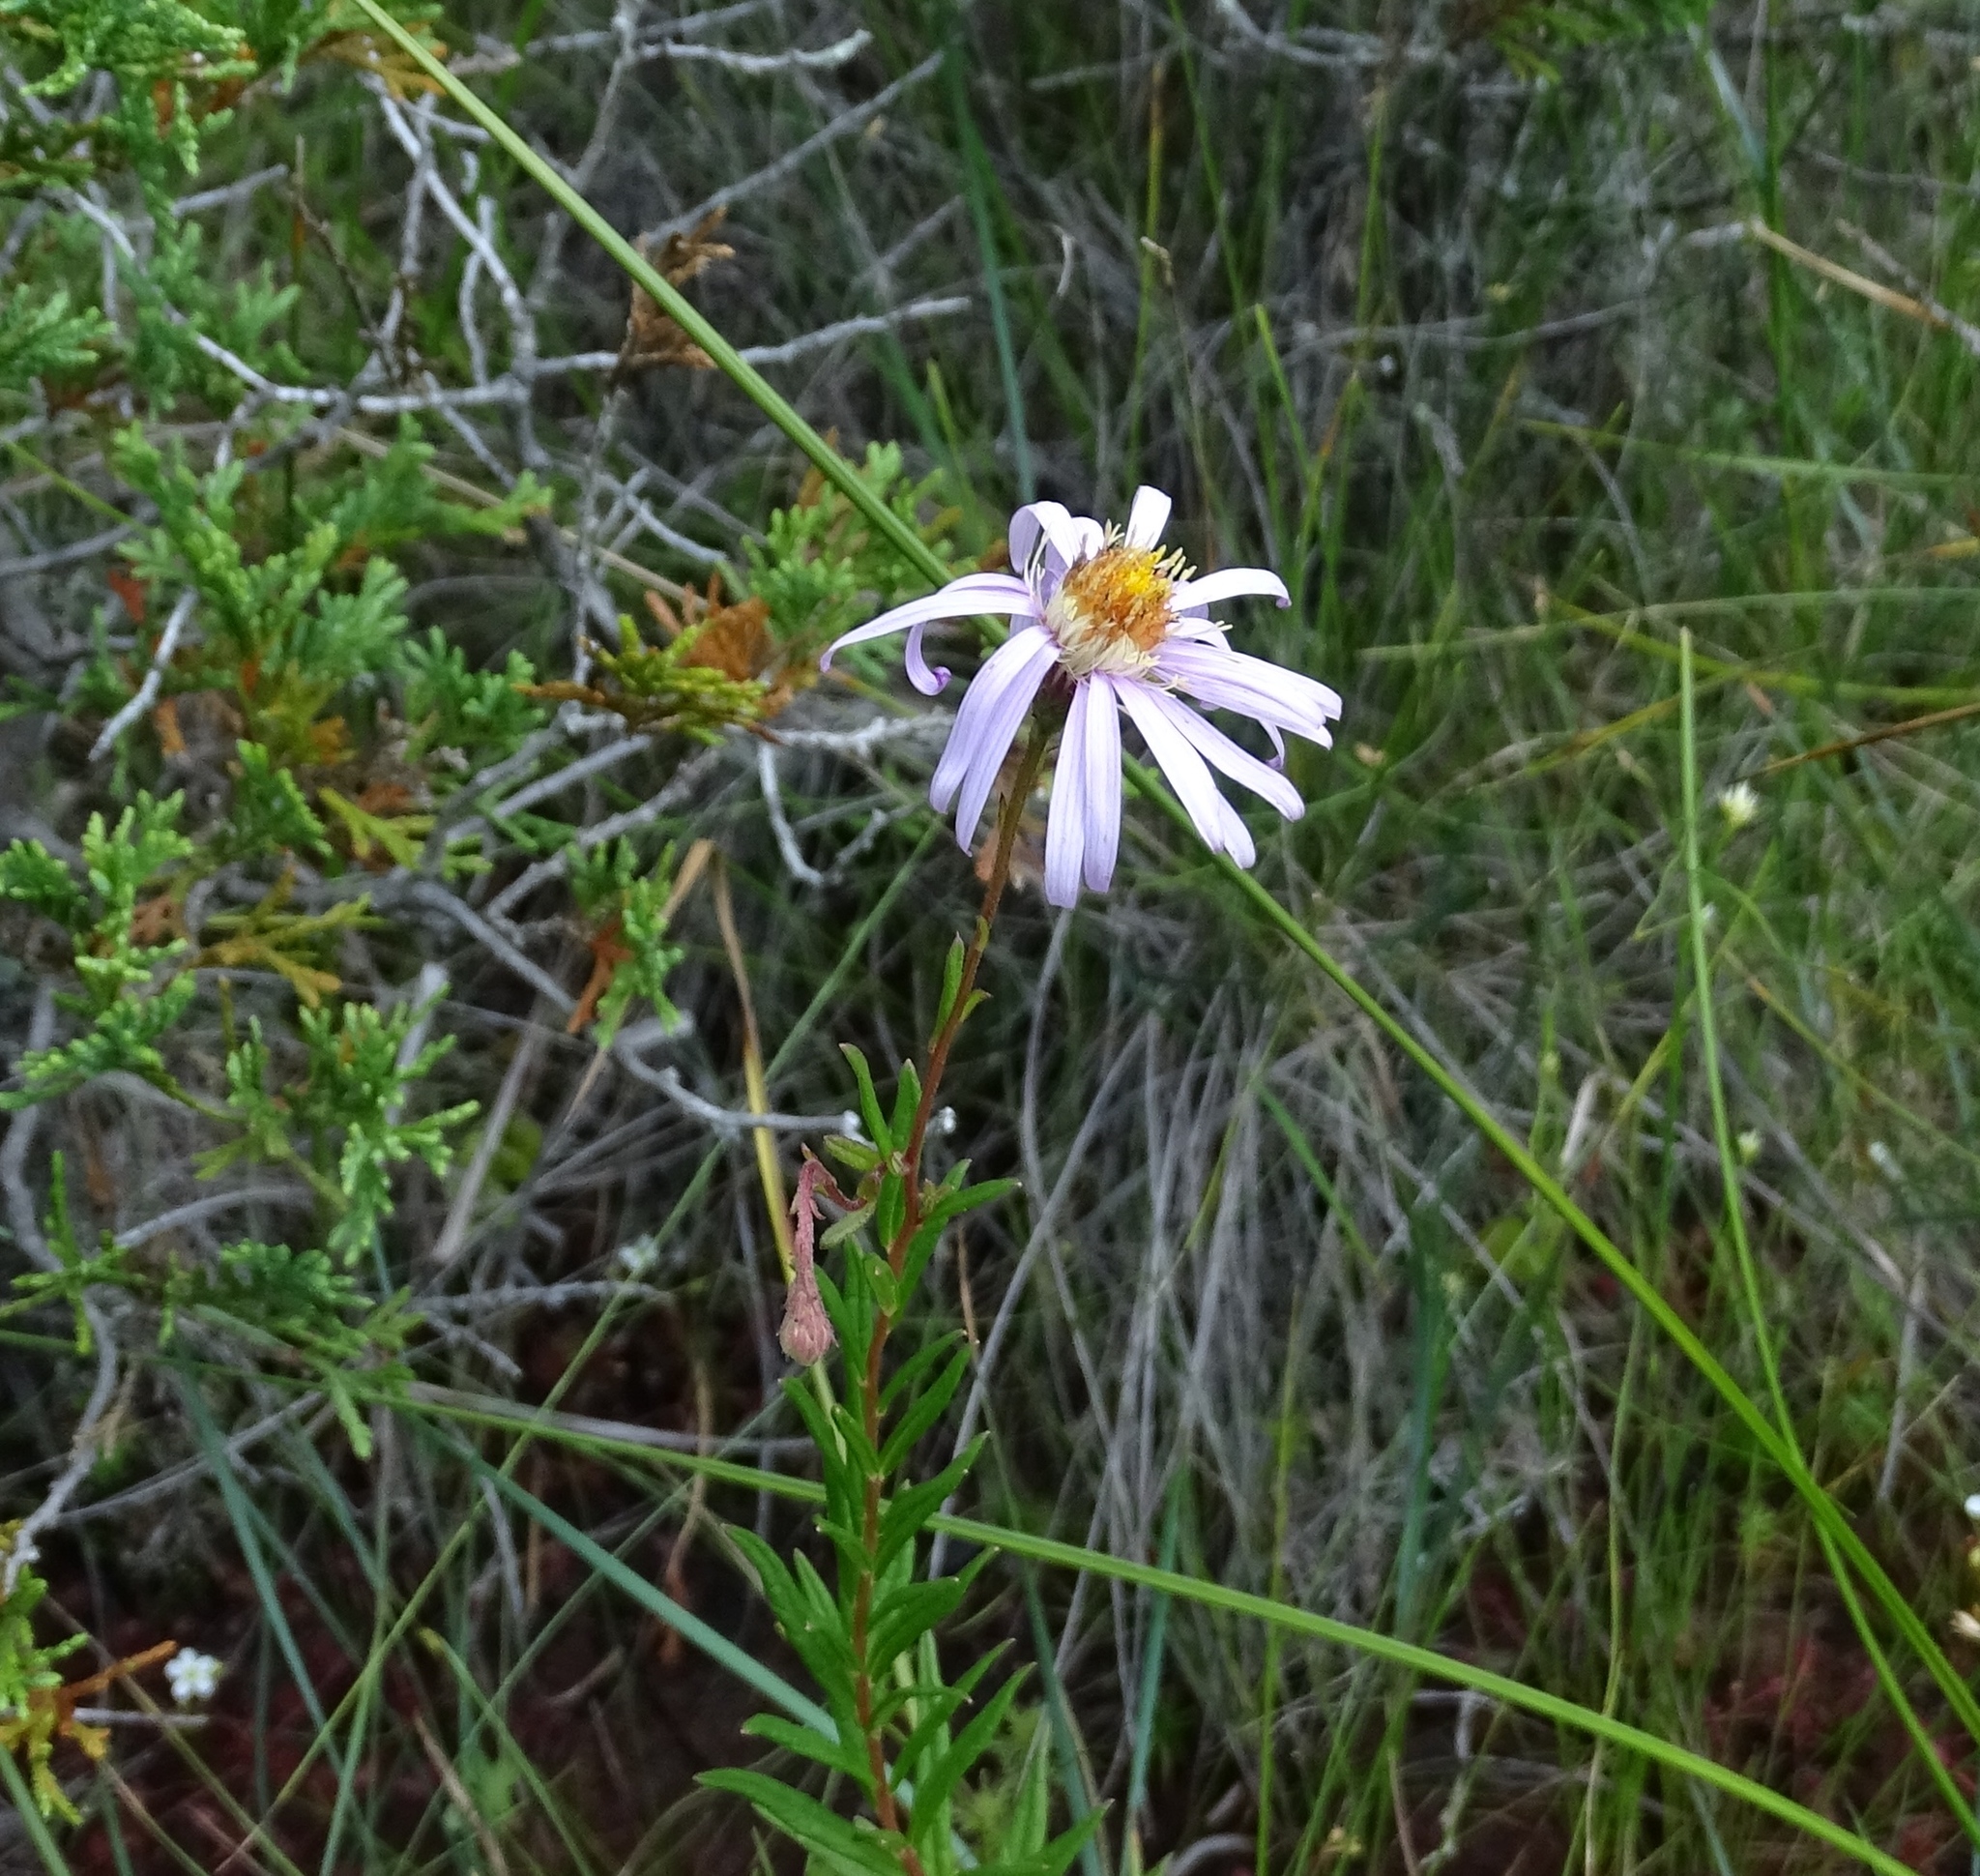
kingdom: Plantae
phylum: Tracheophyta
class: Magnoliopsida
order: Asterales
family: Asteraceae
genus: Oclemena
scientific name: Oclemena nemoralis
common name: Bog aster
